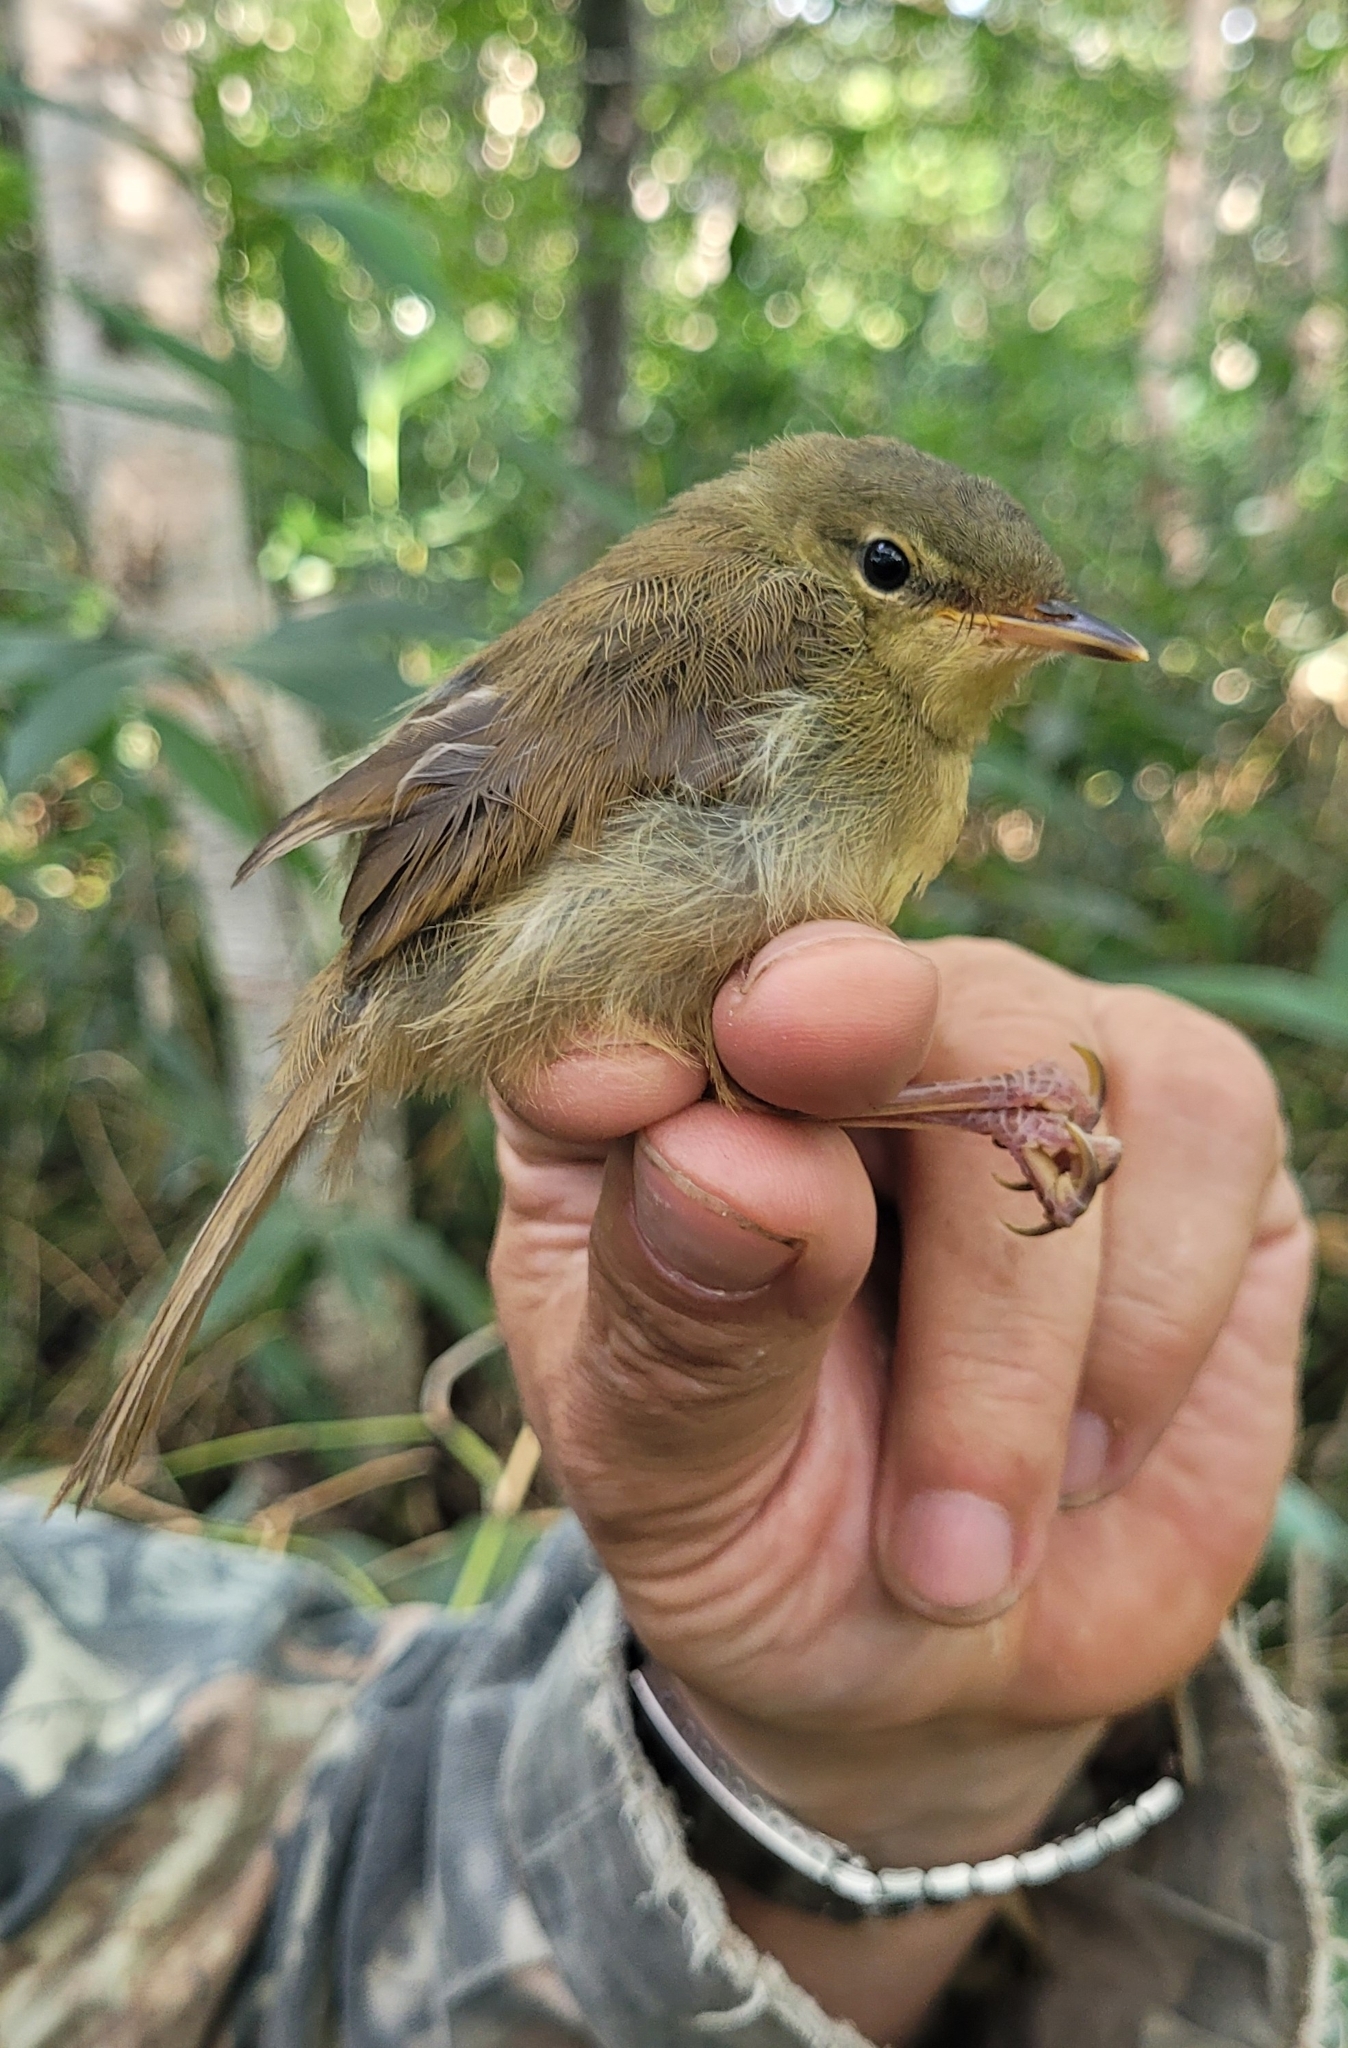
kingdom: Animalia
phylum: Chordata
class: Aves
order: Passeriformes
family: Cettiidae
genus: Horornis
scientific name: Horornis diphone
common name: Japanese bush warbler
